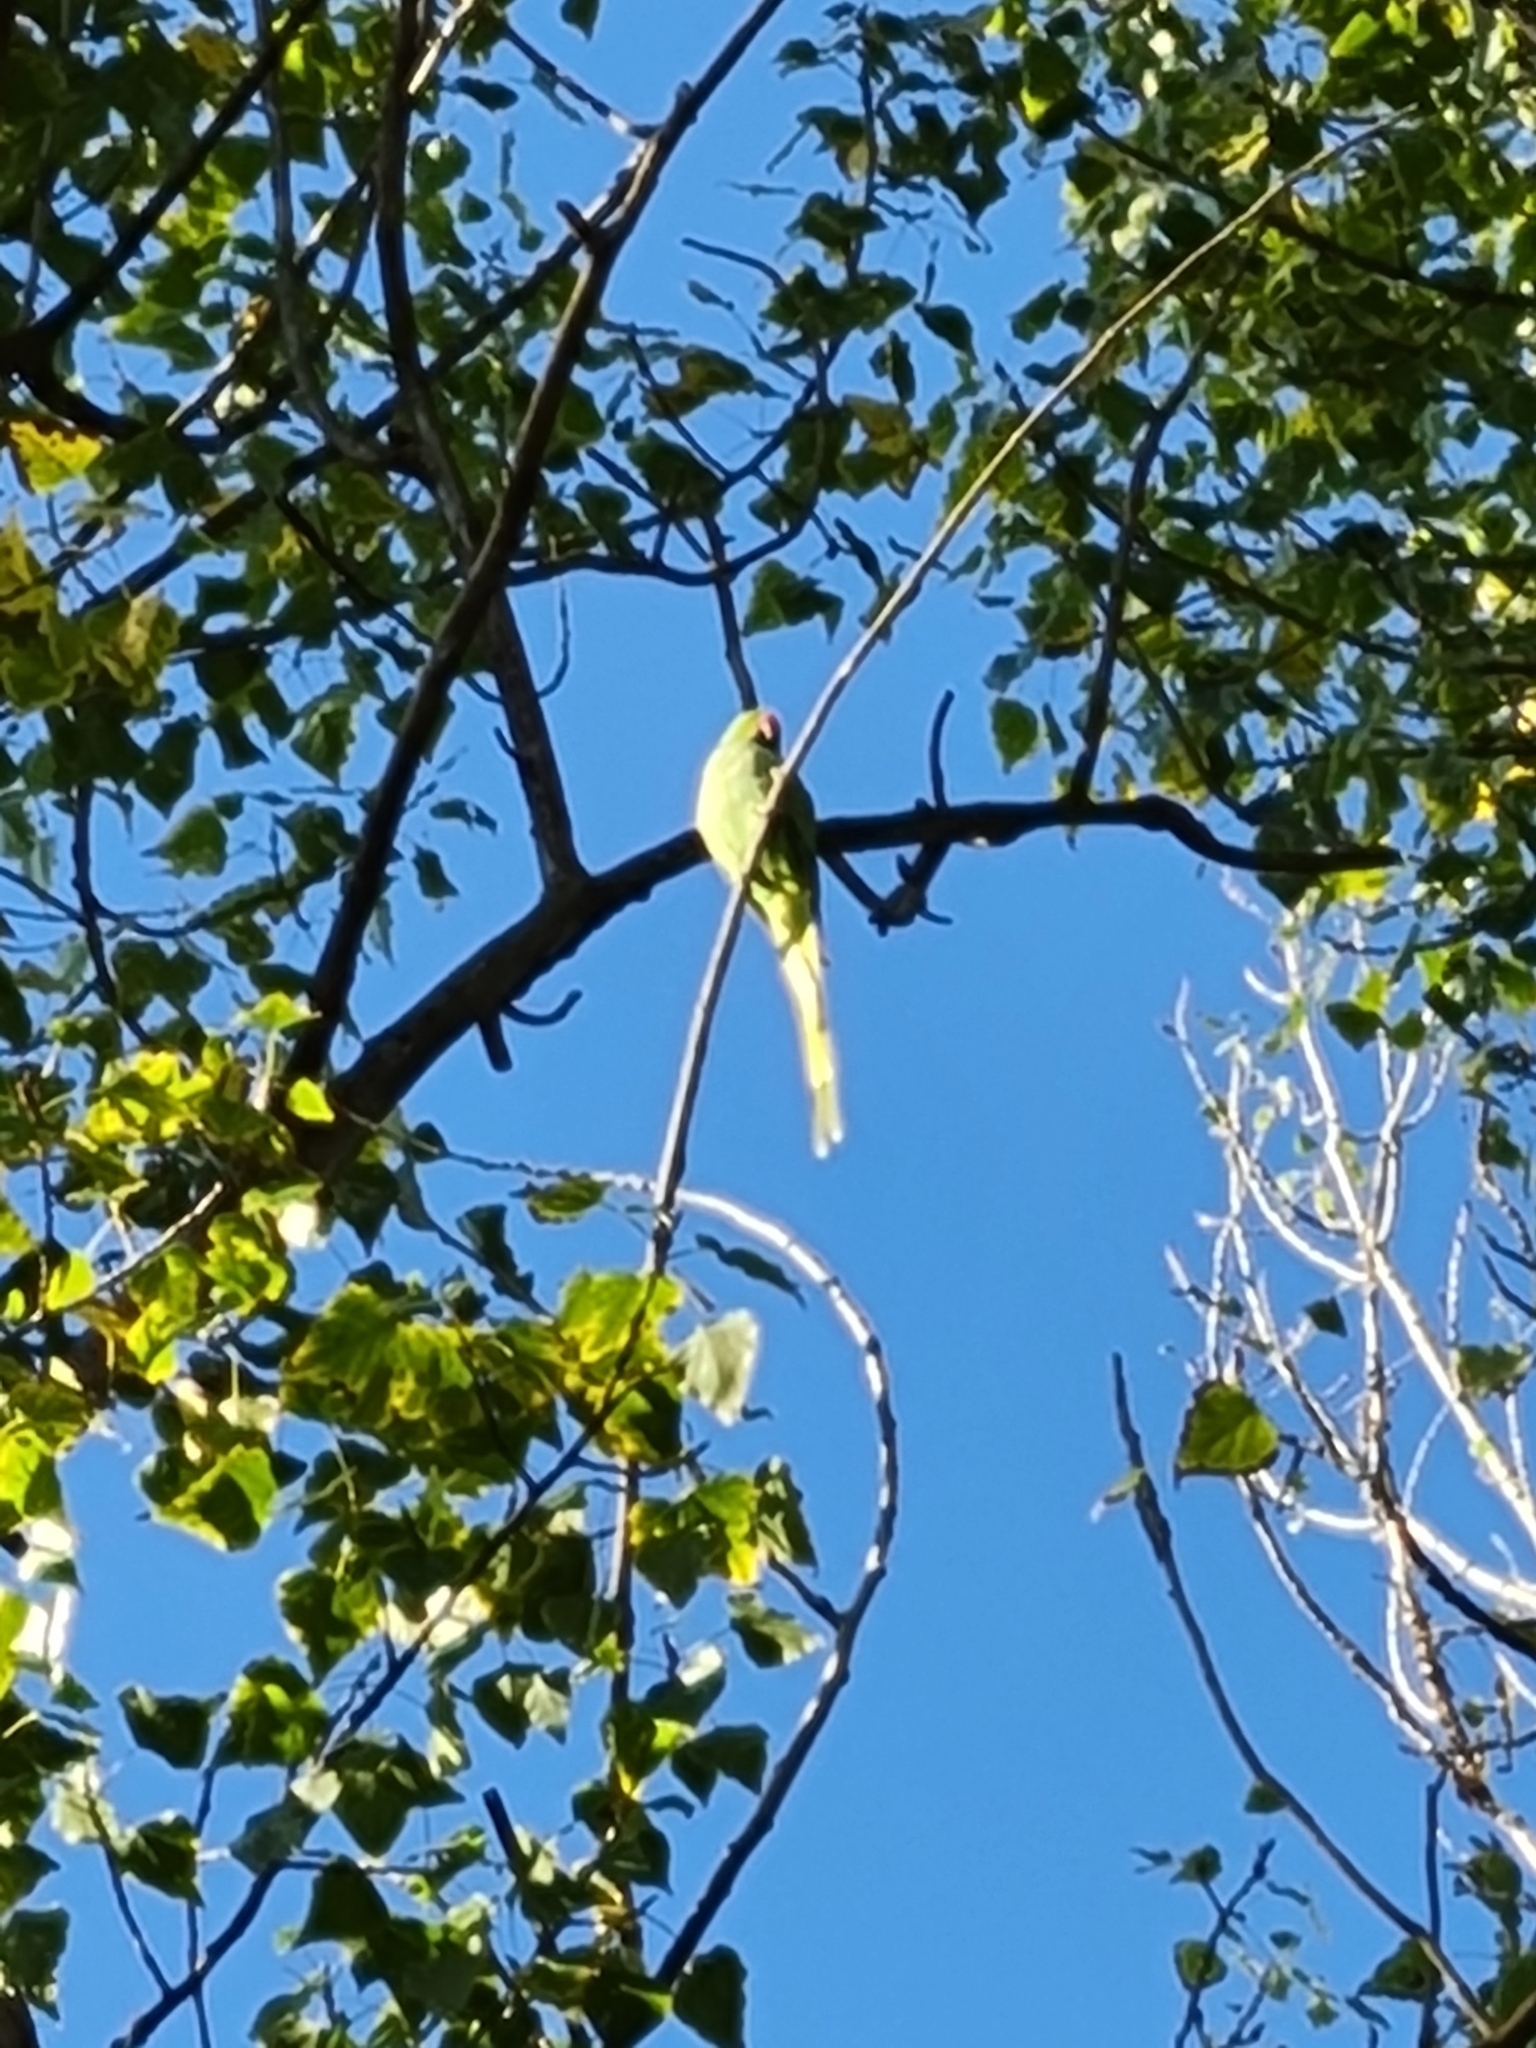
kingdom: Animalia
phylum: Chordata
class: Aves
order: Psittaciformes
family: Psittacidae
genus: Psittacula
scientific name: Psittacula krameri
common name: Rose-ringed parakeet
